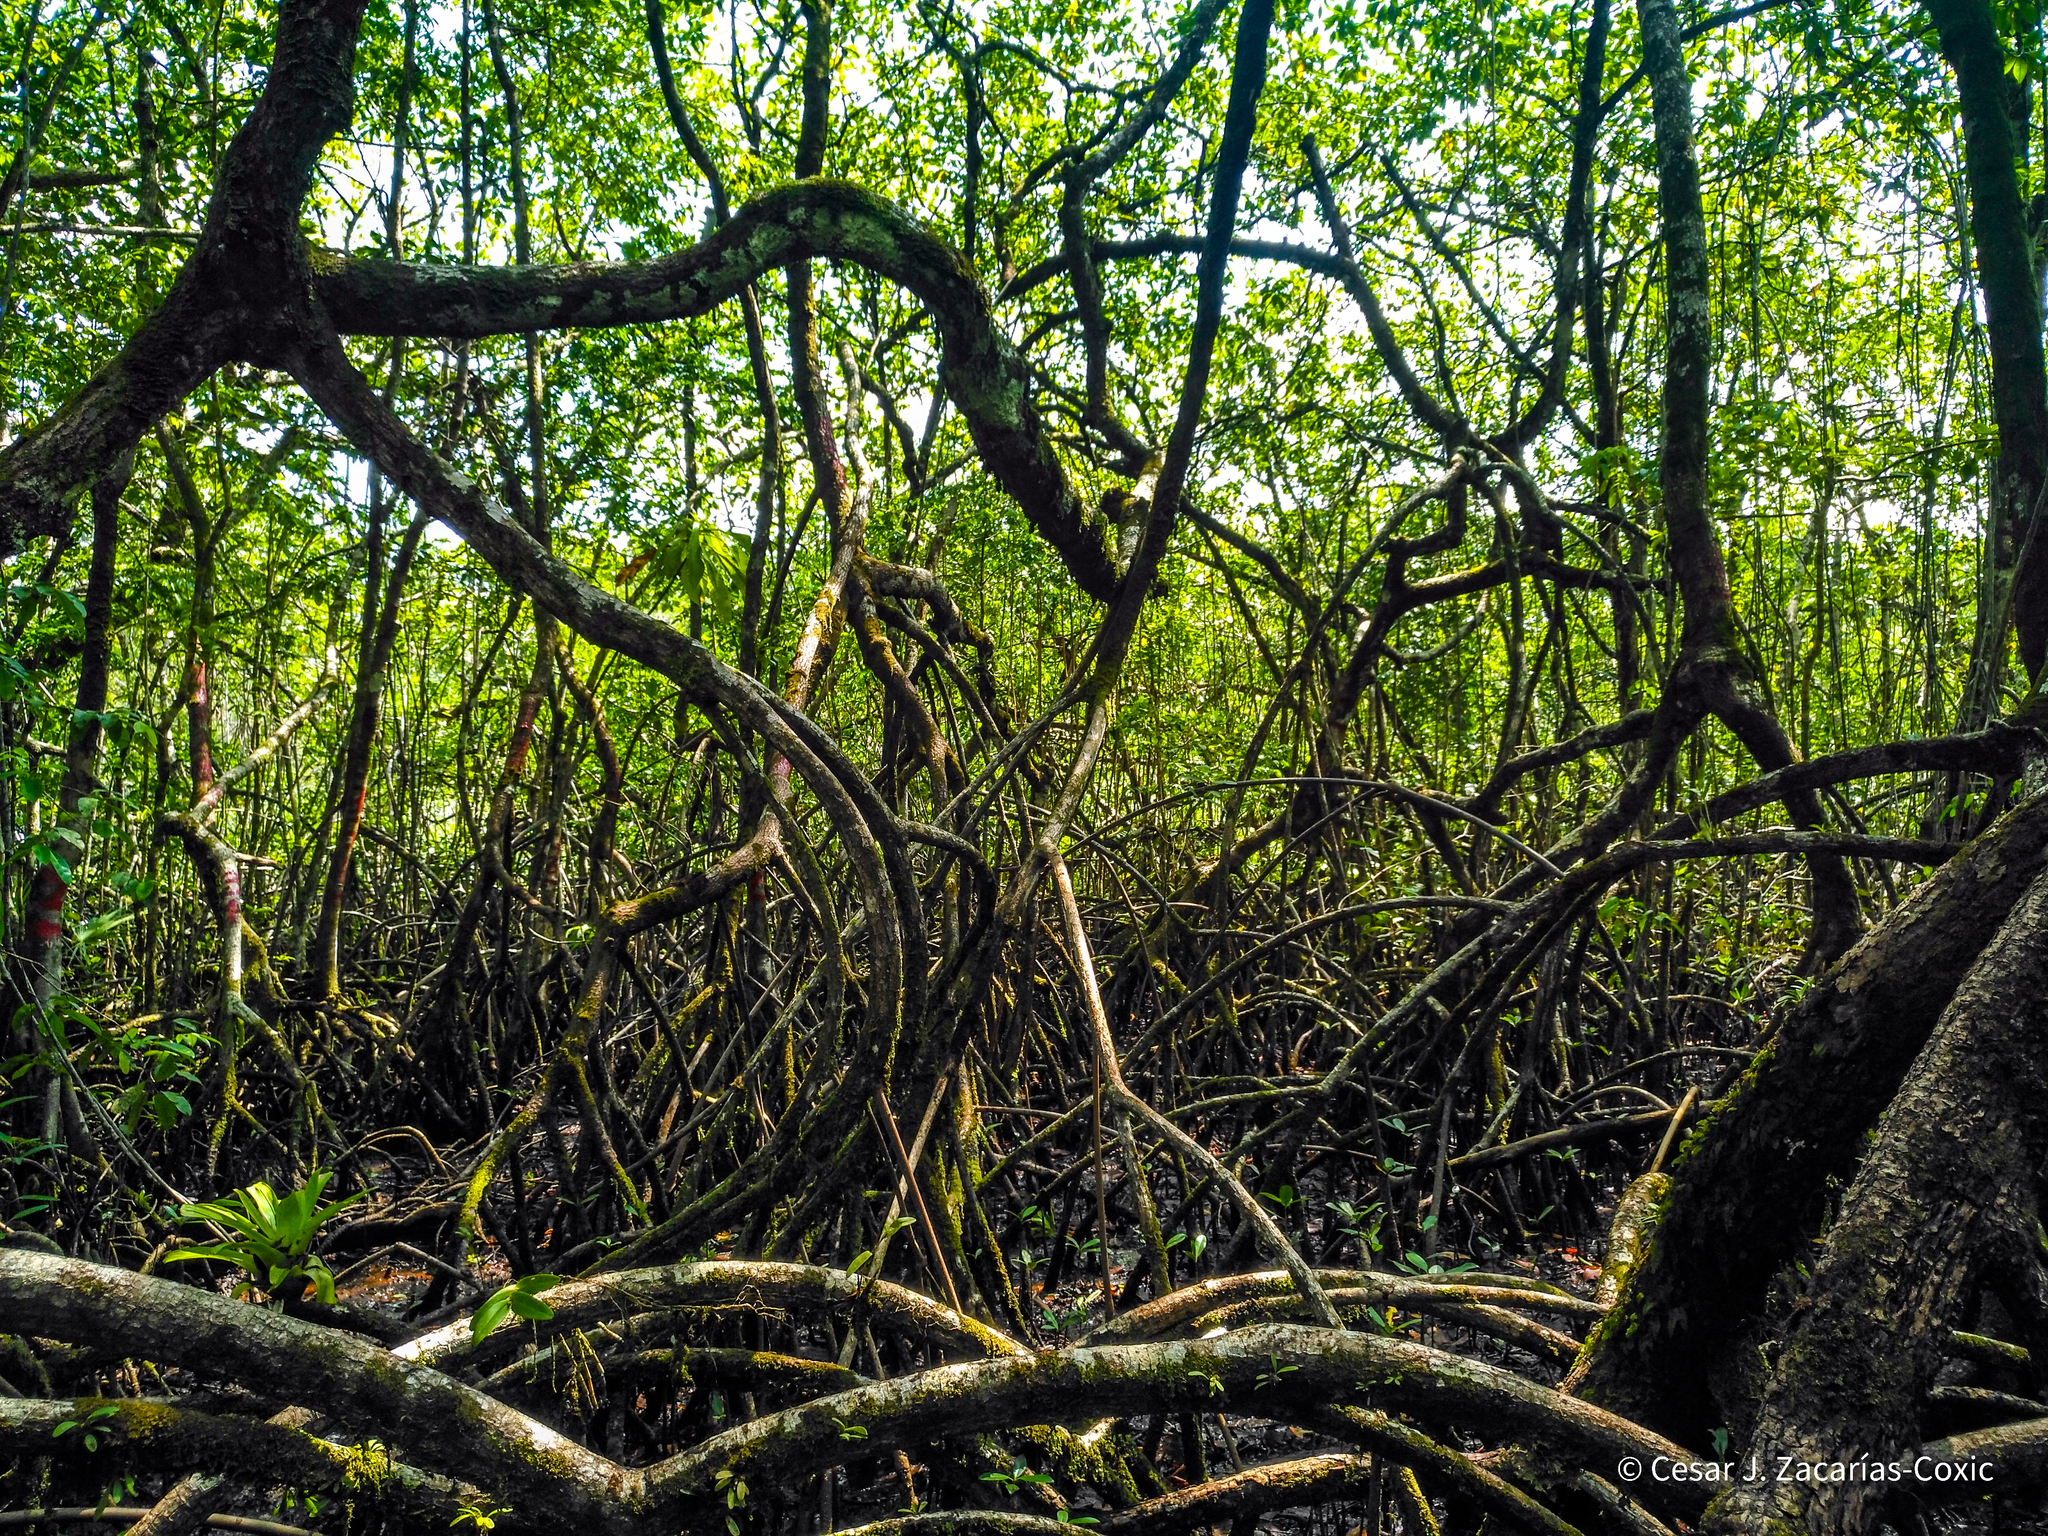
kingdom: Plantae
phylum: Tracheophyta
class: Magnoliopsida
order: Malpighiales
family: Rhizophoraceae
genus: Rhizophora
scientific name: Rhizophora mangle
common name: Red mangrove
